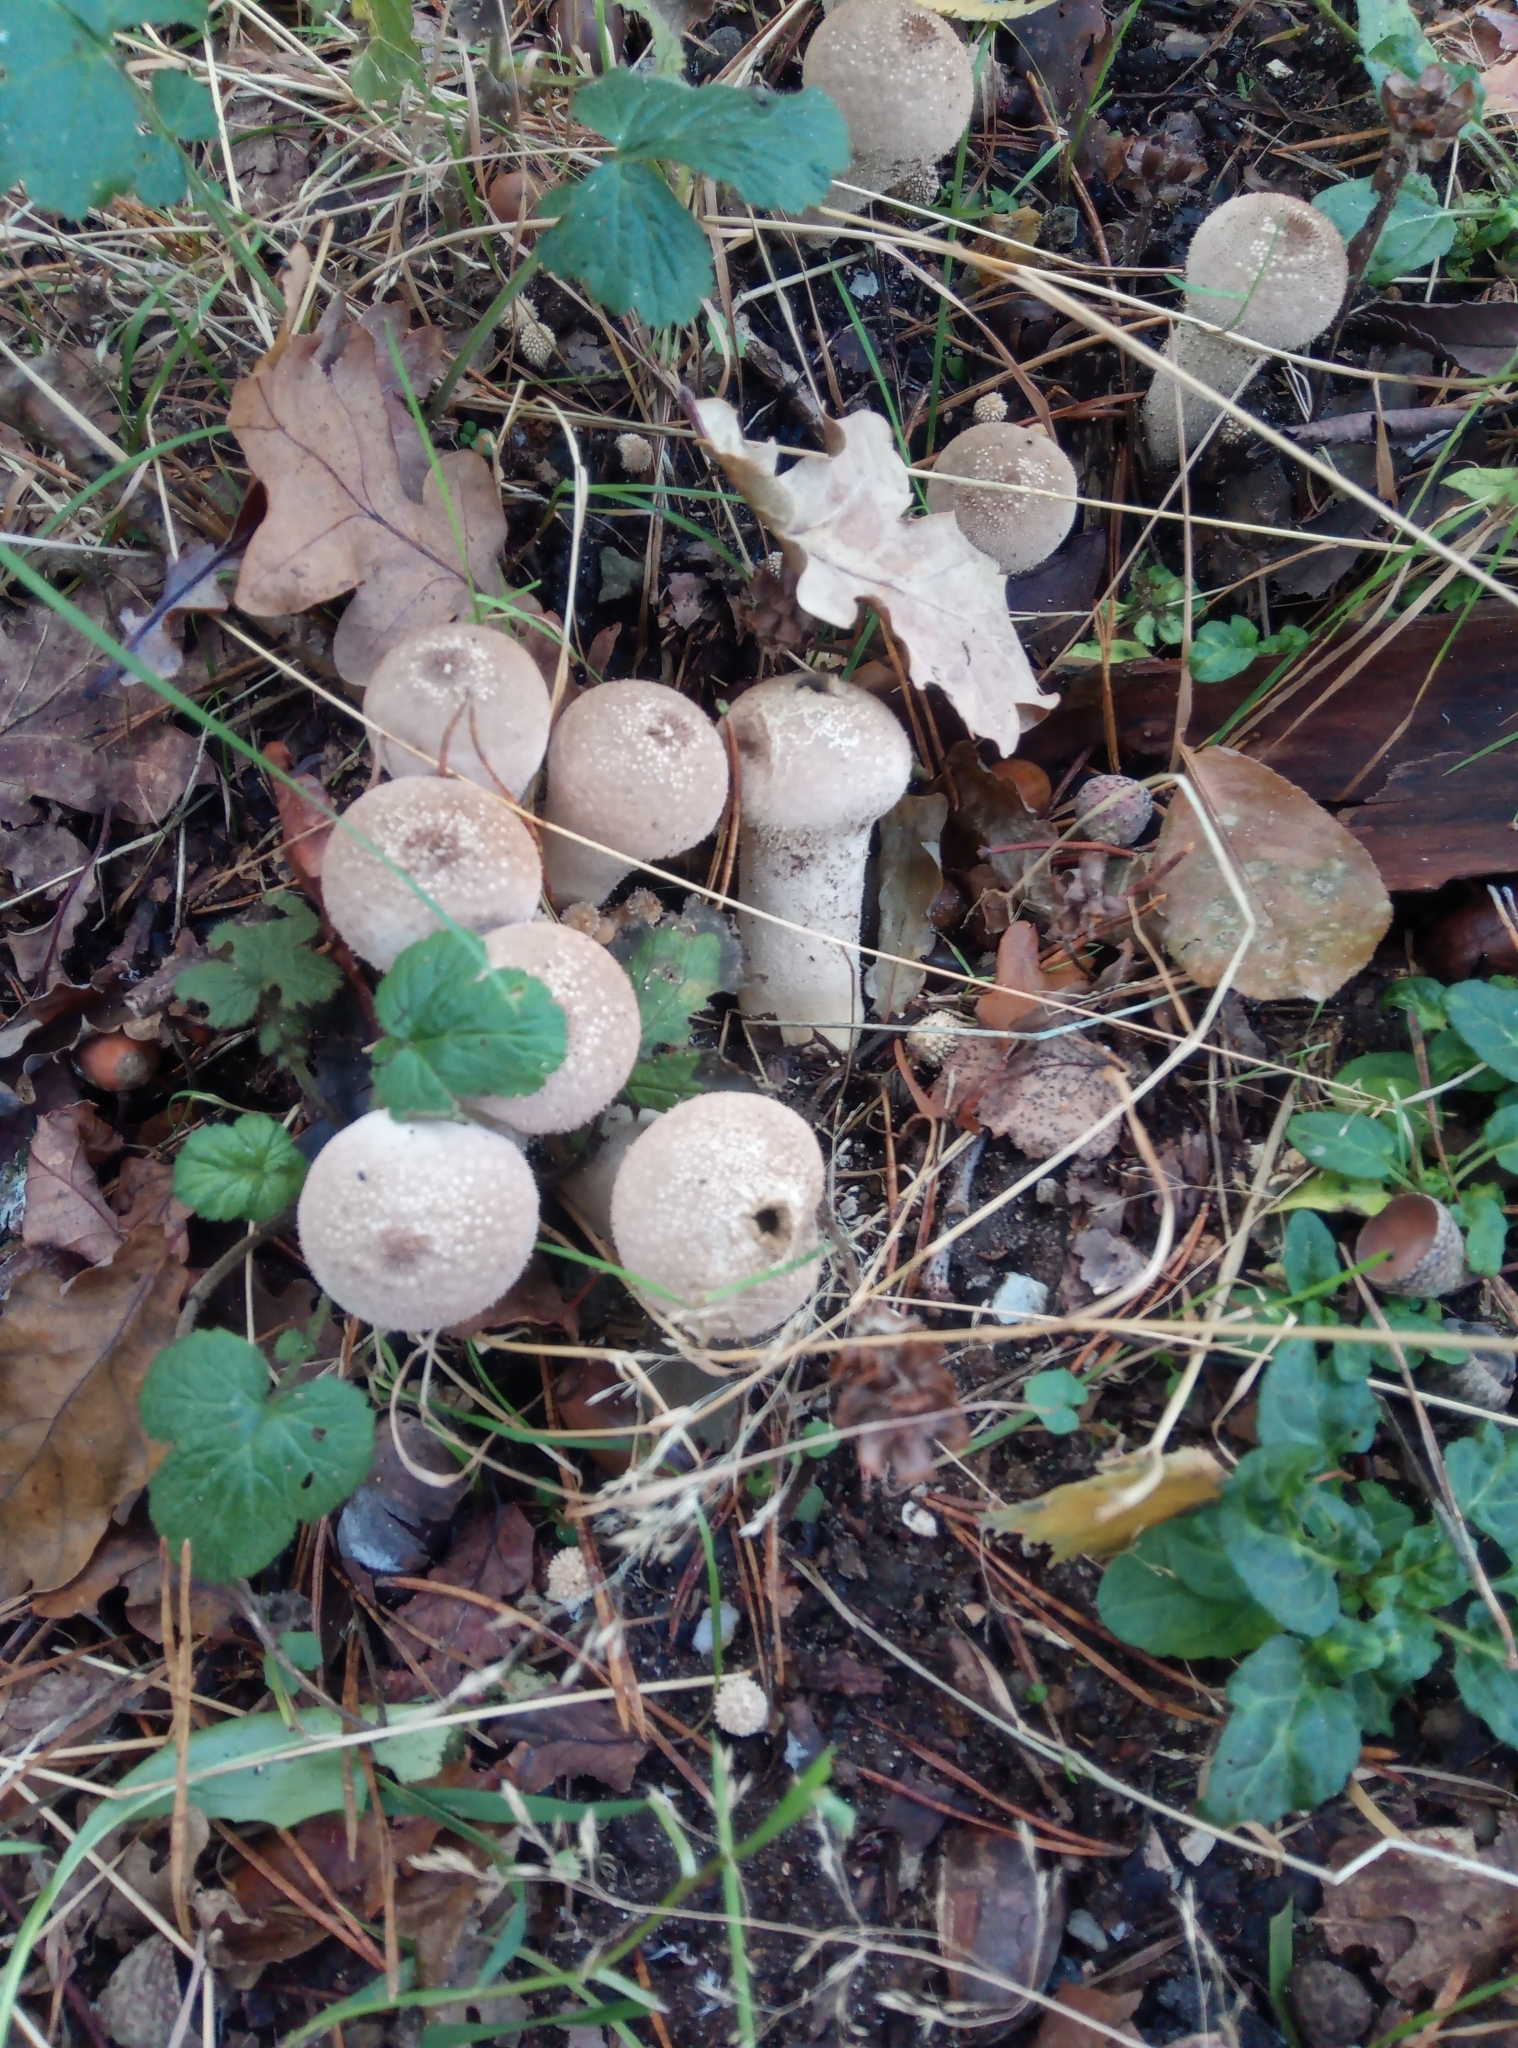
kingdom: Fungi
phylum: Basidiomycota
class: Agaricomycetes
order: Agaricales
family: Lycoperdaceae
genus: Lycoperdon
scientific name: Lycoperdon perlatum
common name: Common puffball
